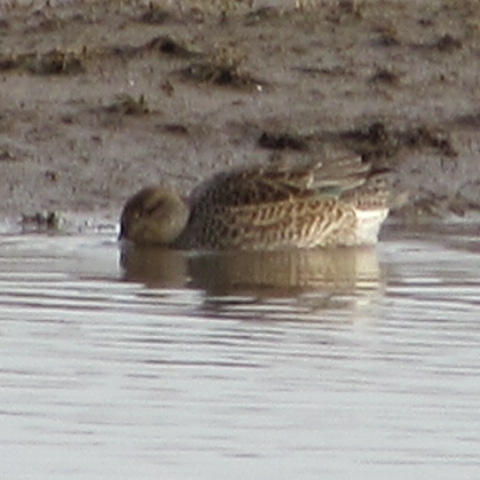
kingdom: Animalia
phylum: Chordata
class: Aves
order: Anseriformes
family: Anatidae
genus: Anas
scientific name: Anas crecca
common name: Eurasian teal
